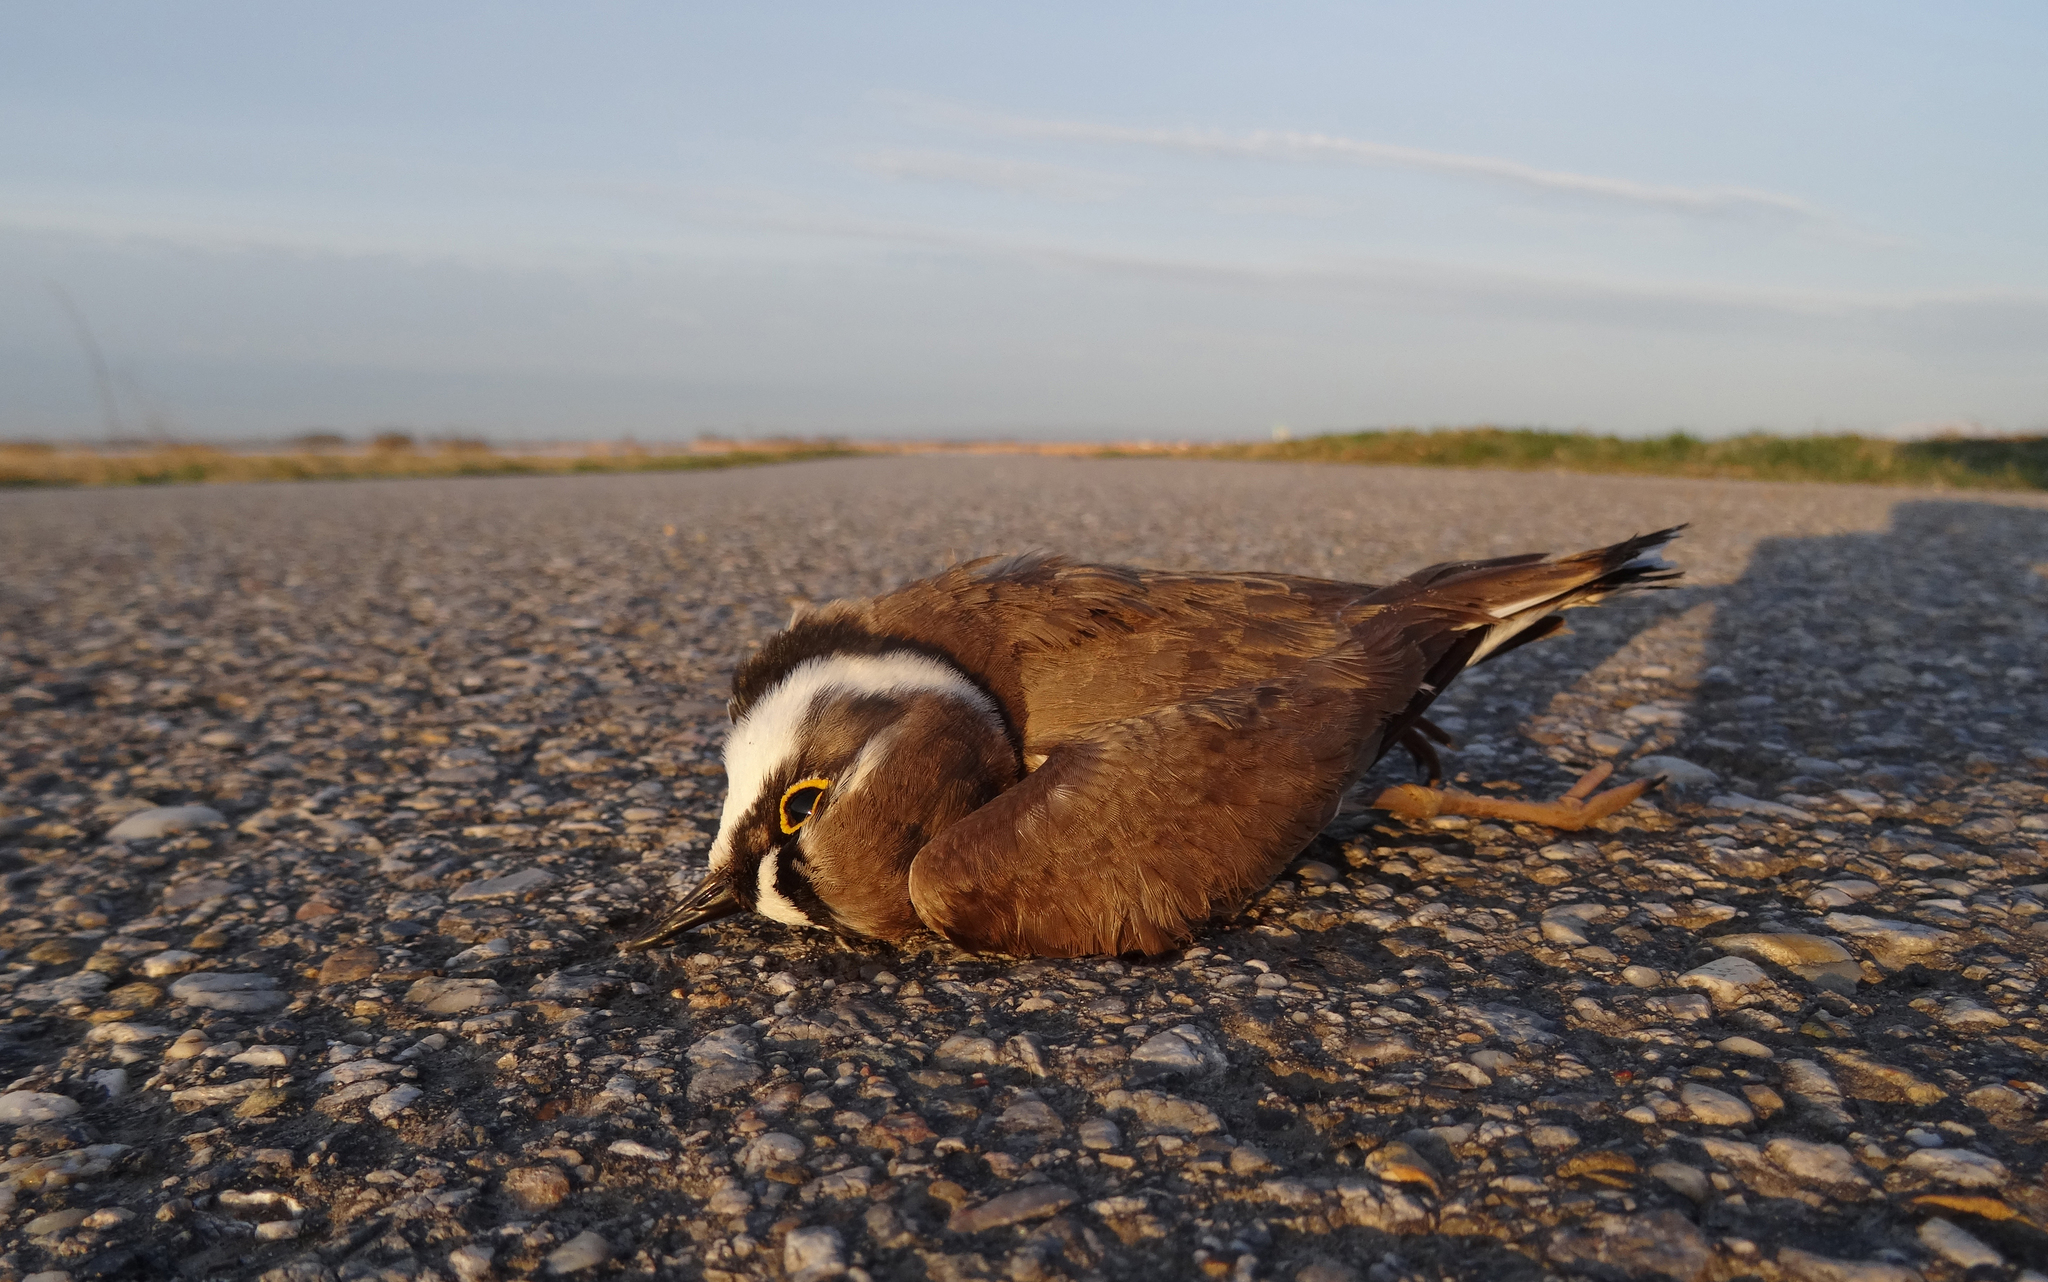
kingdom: Animalia
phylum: Chordata
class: Aves
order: Charadriiformes
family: Charadriidae
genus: Charadrius
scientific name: Charadrius dubius
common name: Little ringed plover
